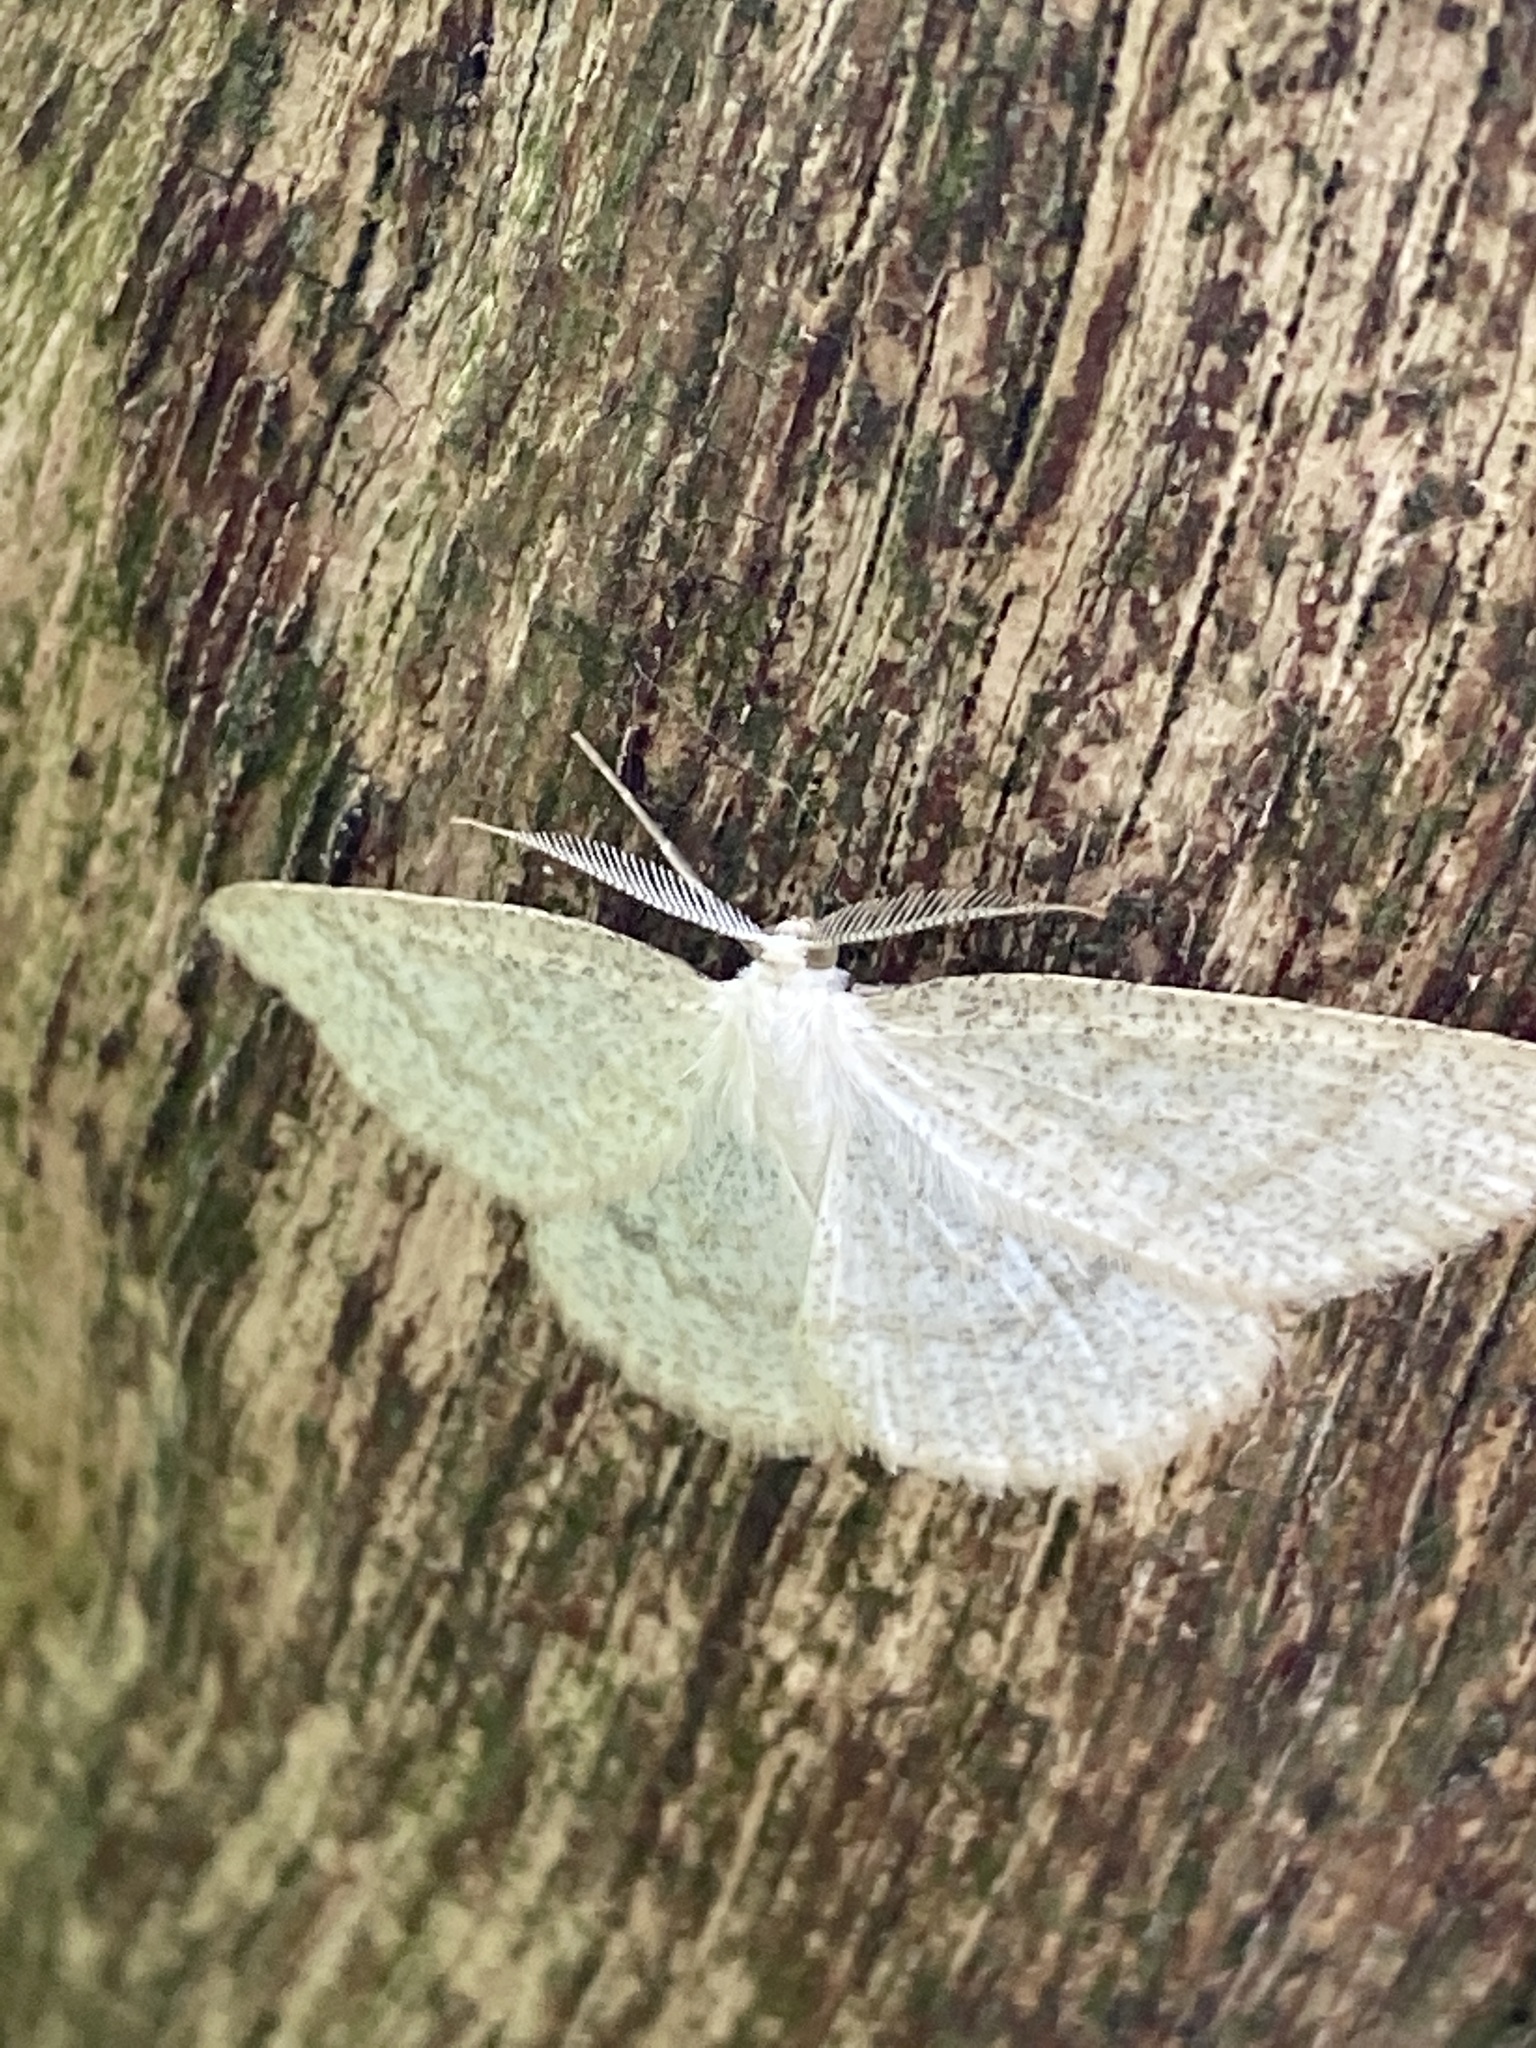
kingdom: Animalia
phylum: Arthropoda
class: Insecta
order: Lepidoptera
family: Geometridae
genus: Cabera
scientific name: Cabera exanthemata
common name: Common wave
